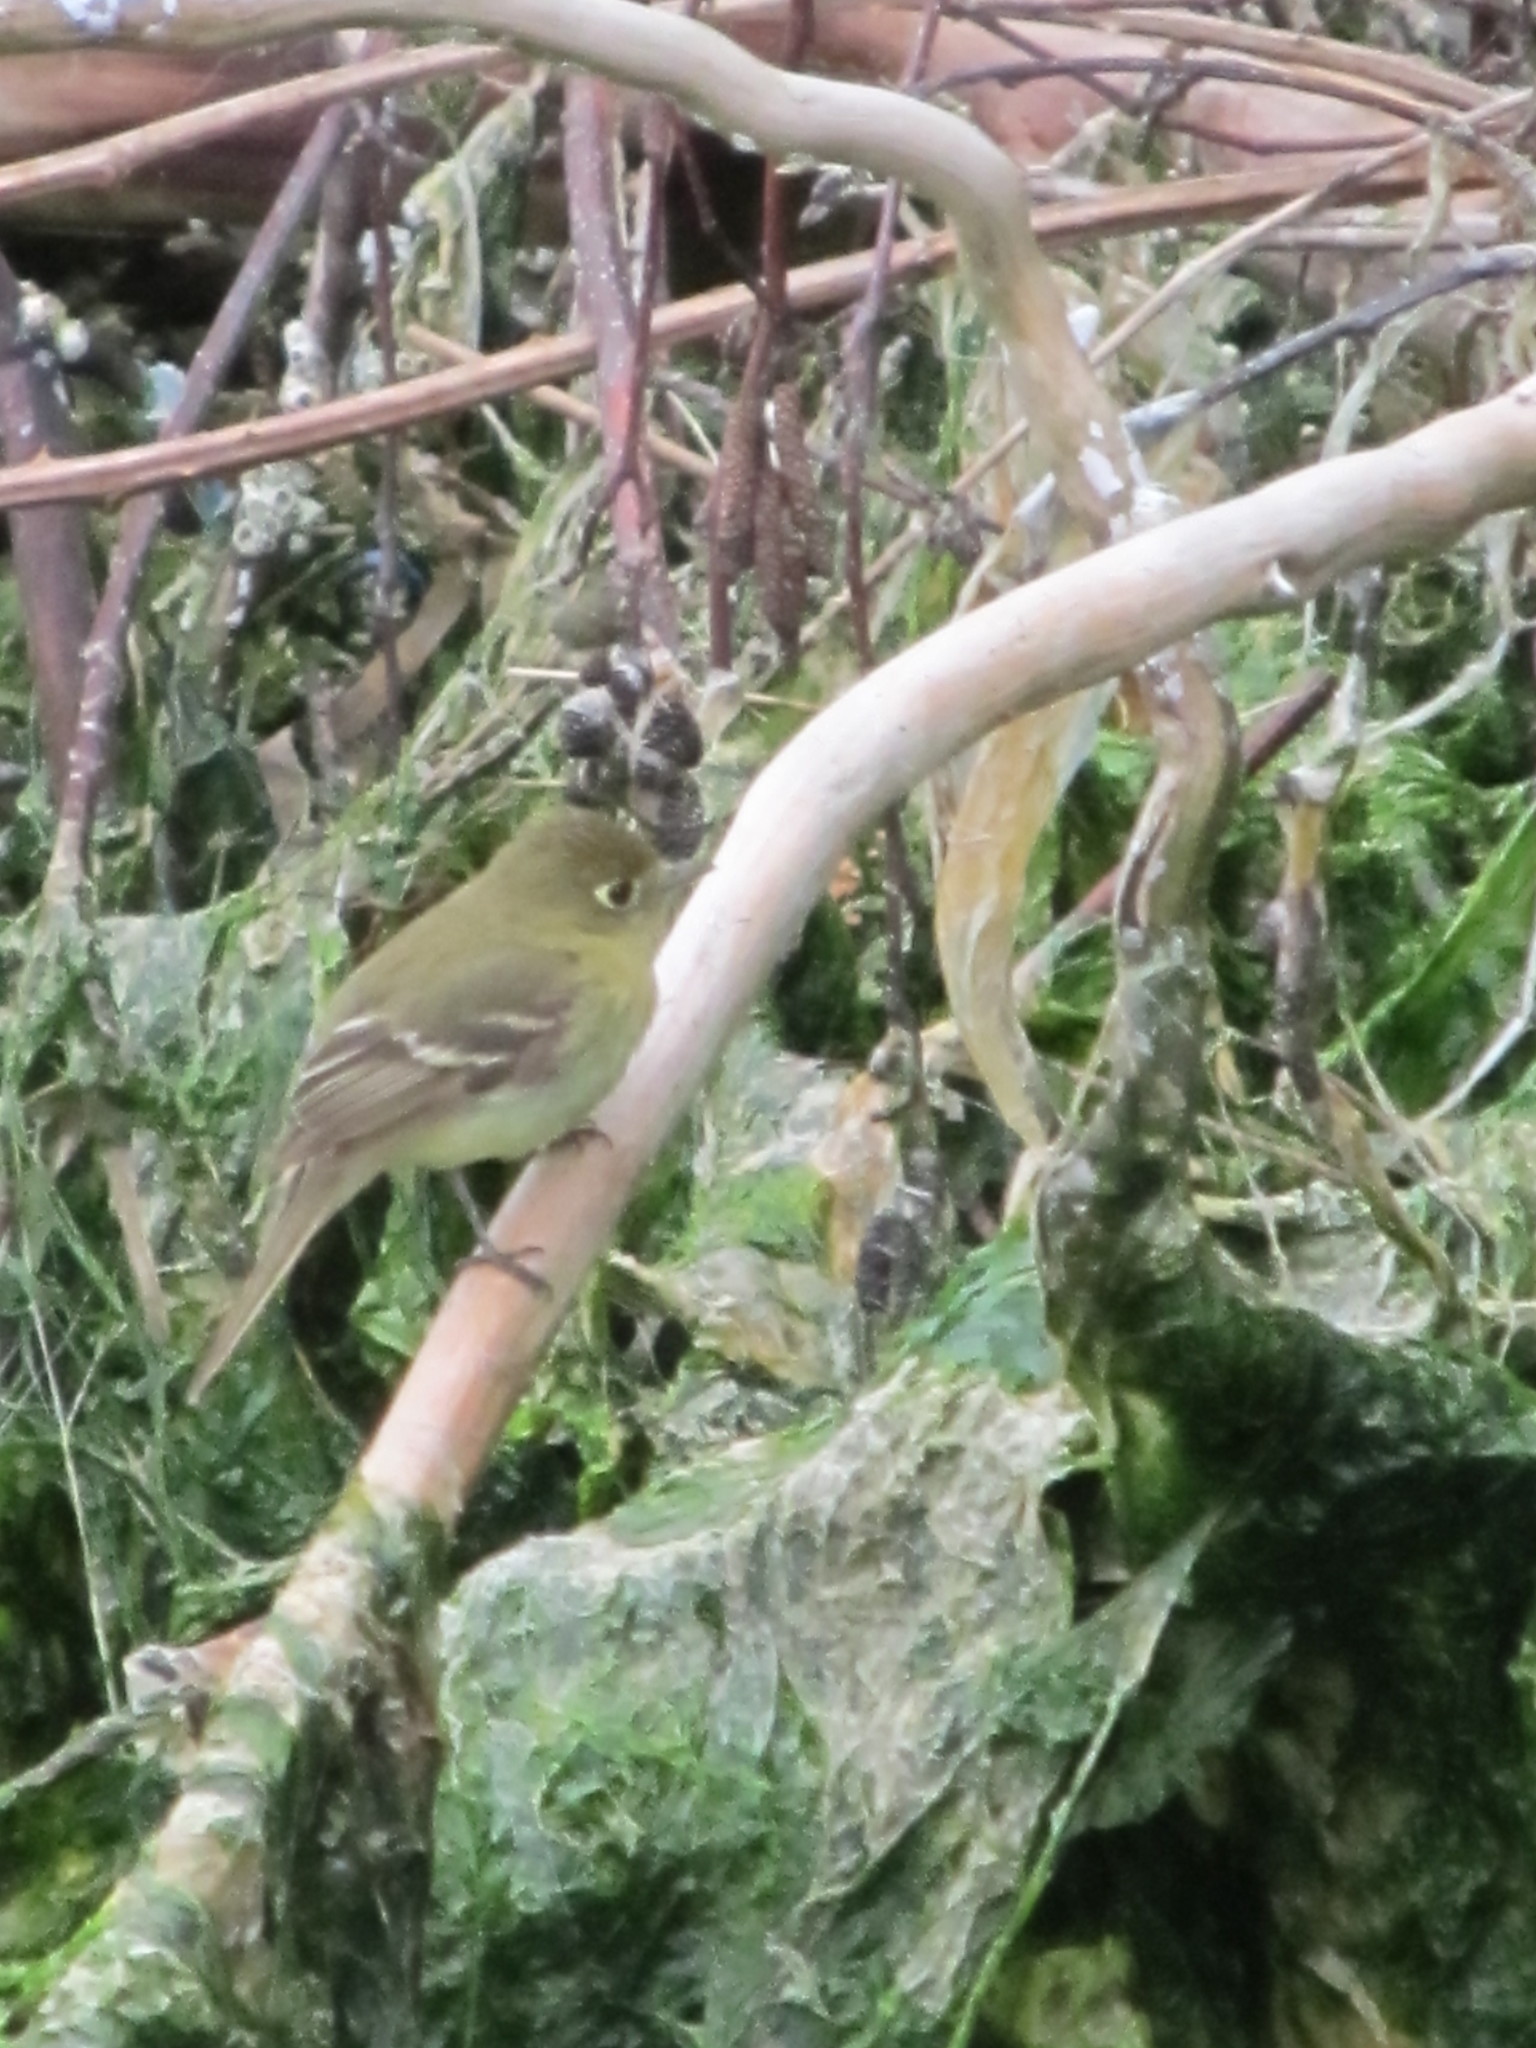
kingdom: Animalia
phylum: Chordata
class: Aves
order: Passeriformes
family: Tyrannidae
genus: Empidonax
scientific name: Empidonax difficilis
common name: Pacific-slope flycatcher
